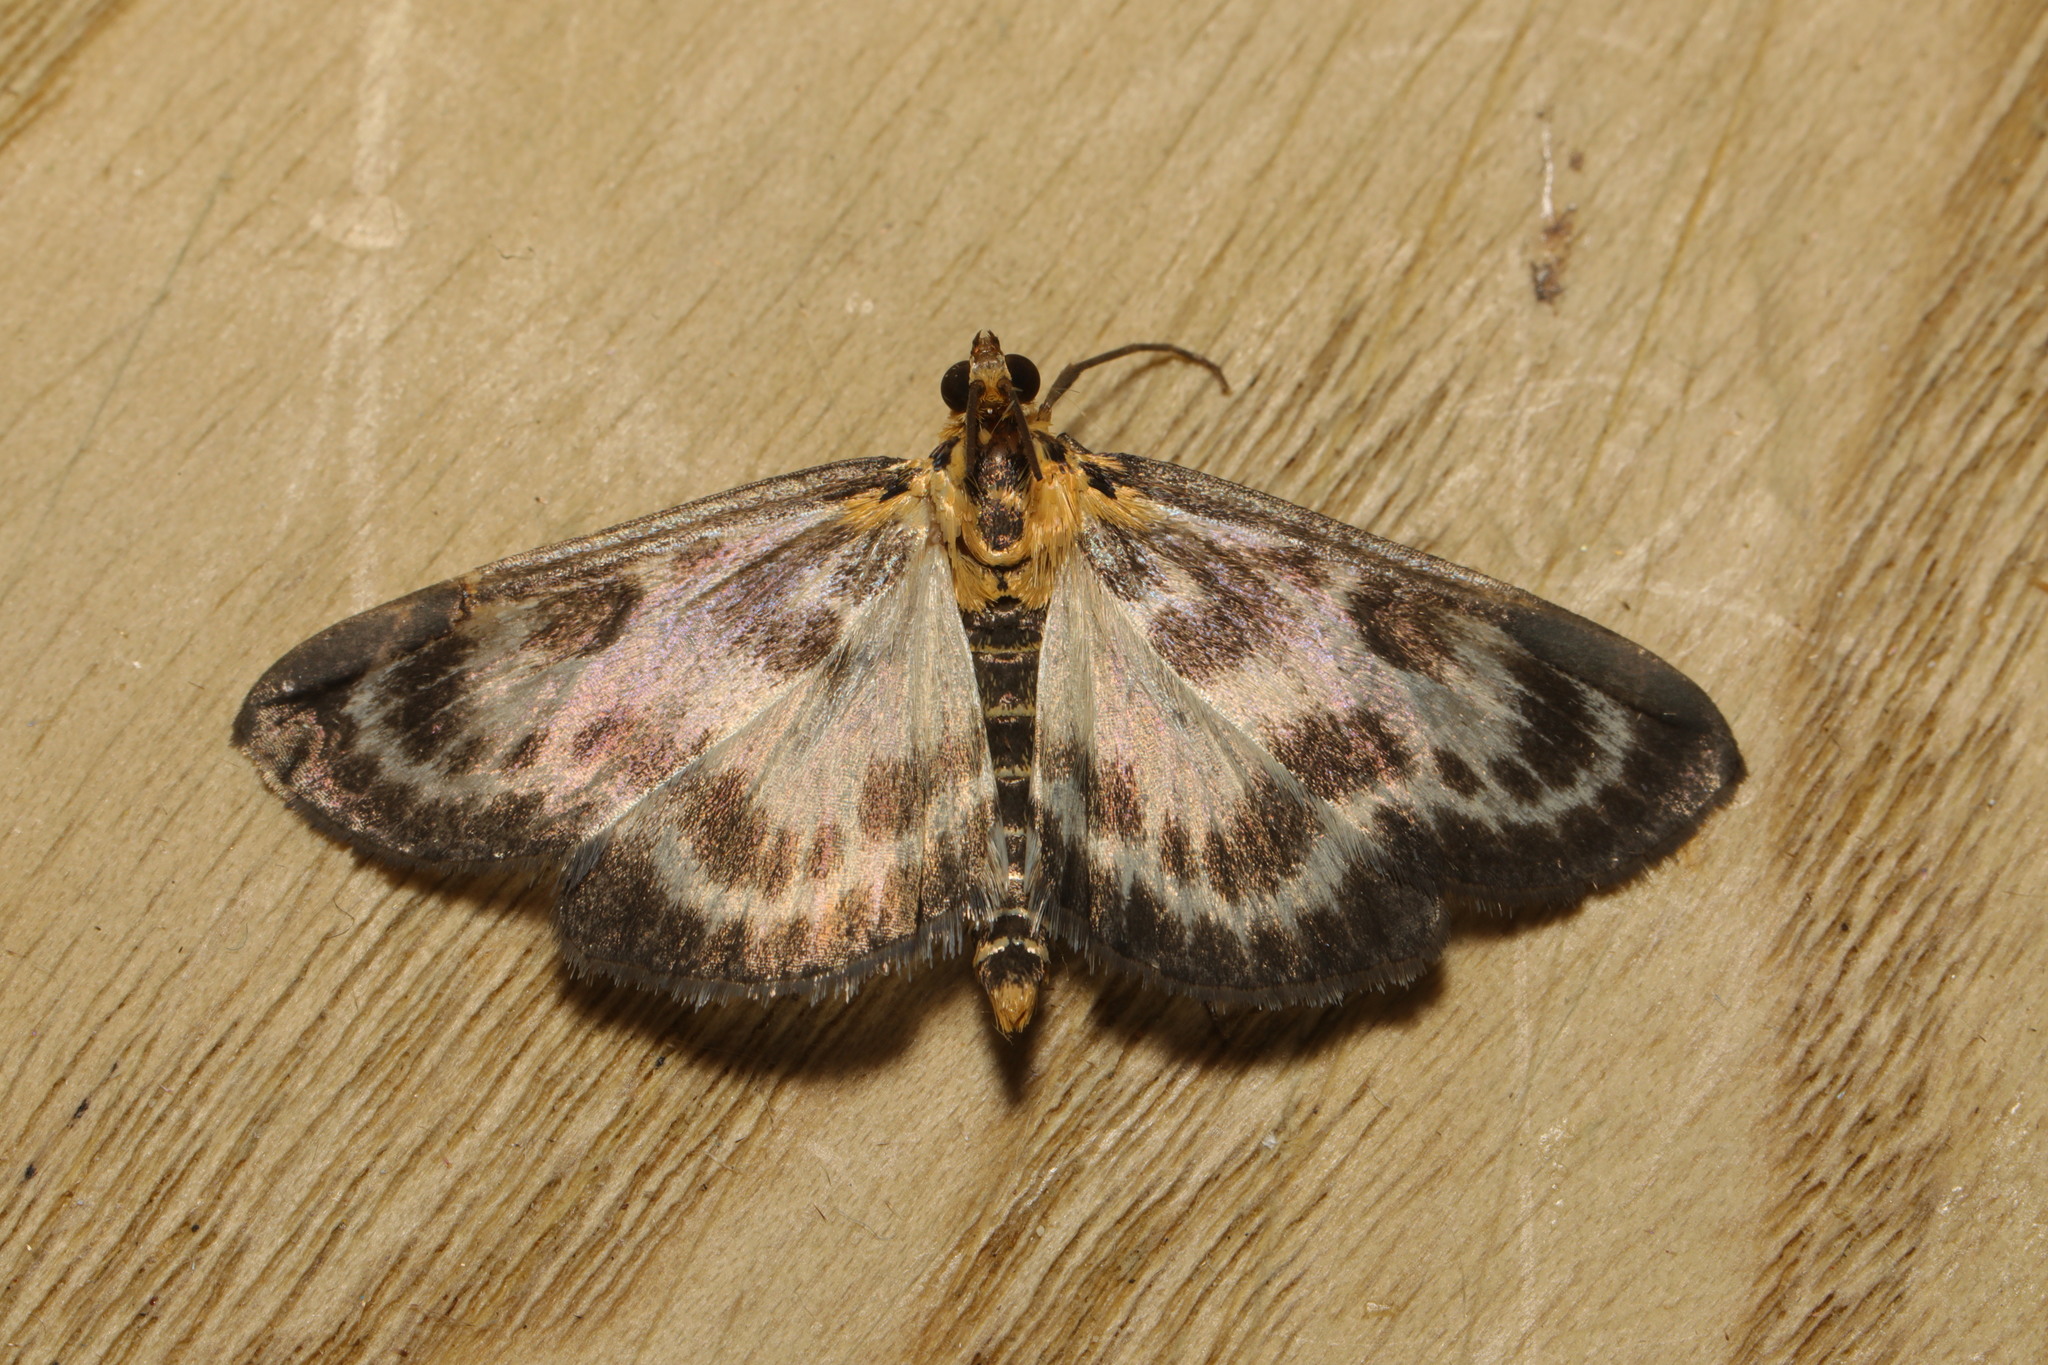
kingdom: Animalia
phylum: Arthropoda
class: Insecta
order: Lepidoptera
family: Crambidae
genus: Anania
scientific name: Anania hortulata
